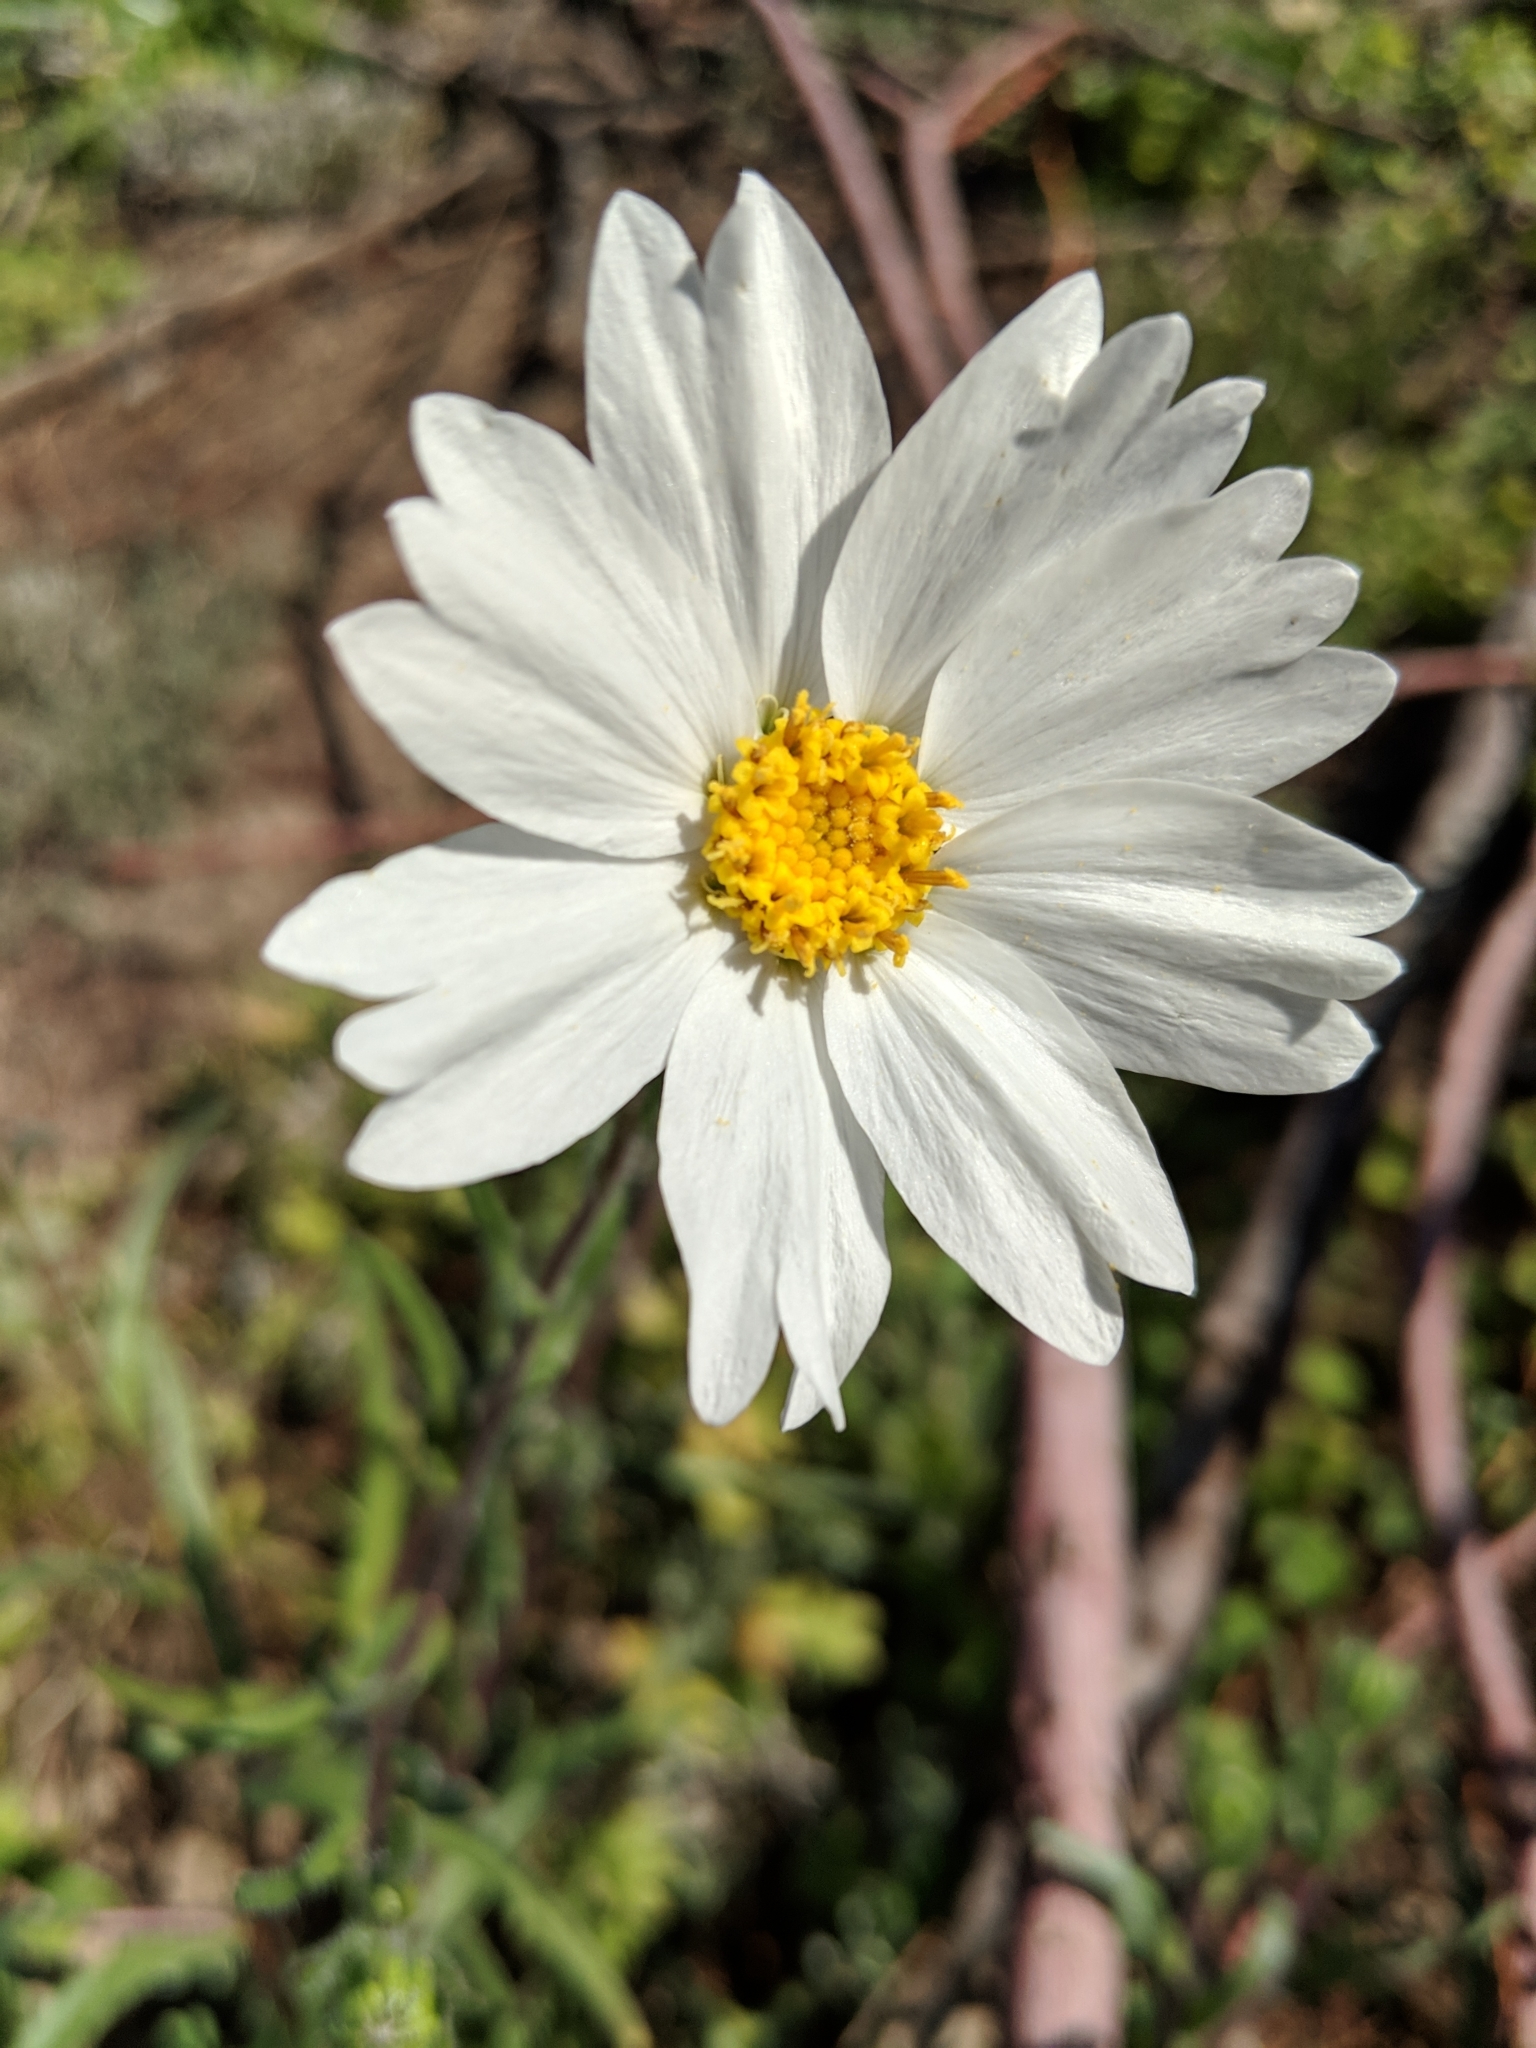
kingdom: Plantae
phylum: Tracheophyta
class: Magnoliopsida
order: Asterales
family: Asteraceae
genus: Layia
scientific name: Layia glandulosa
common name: White layia
